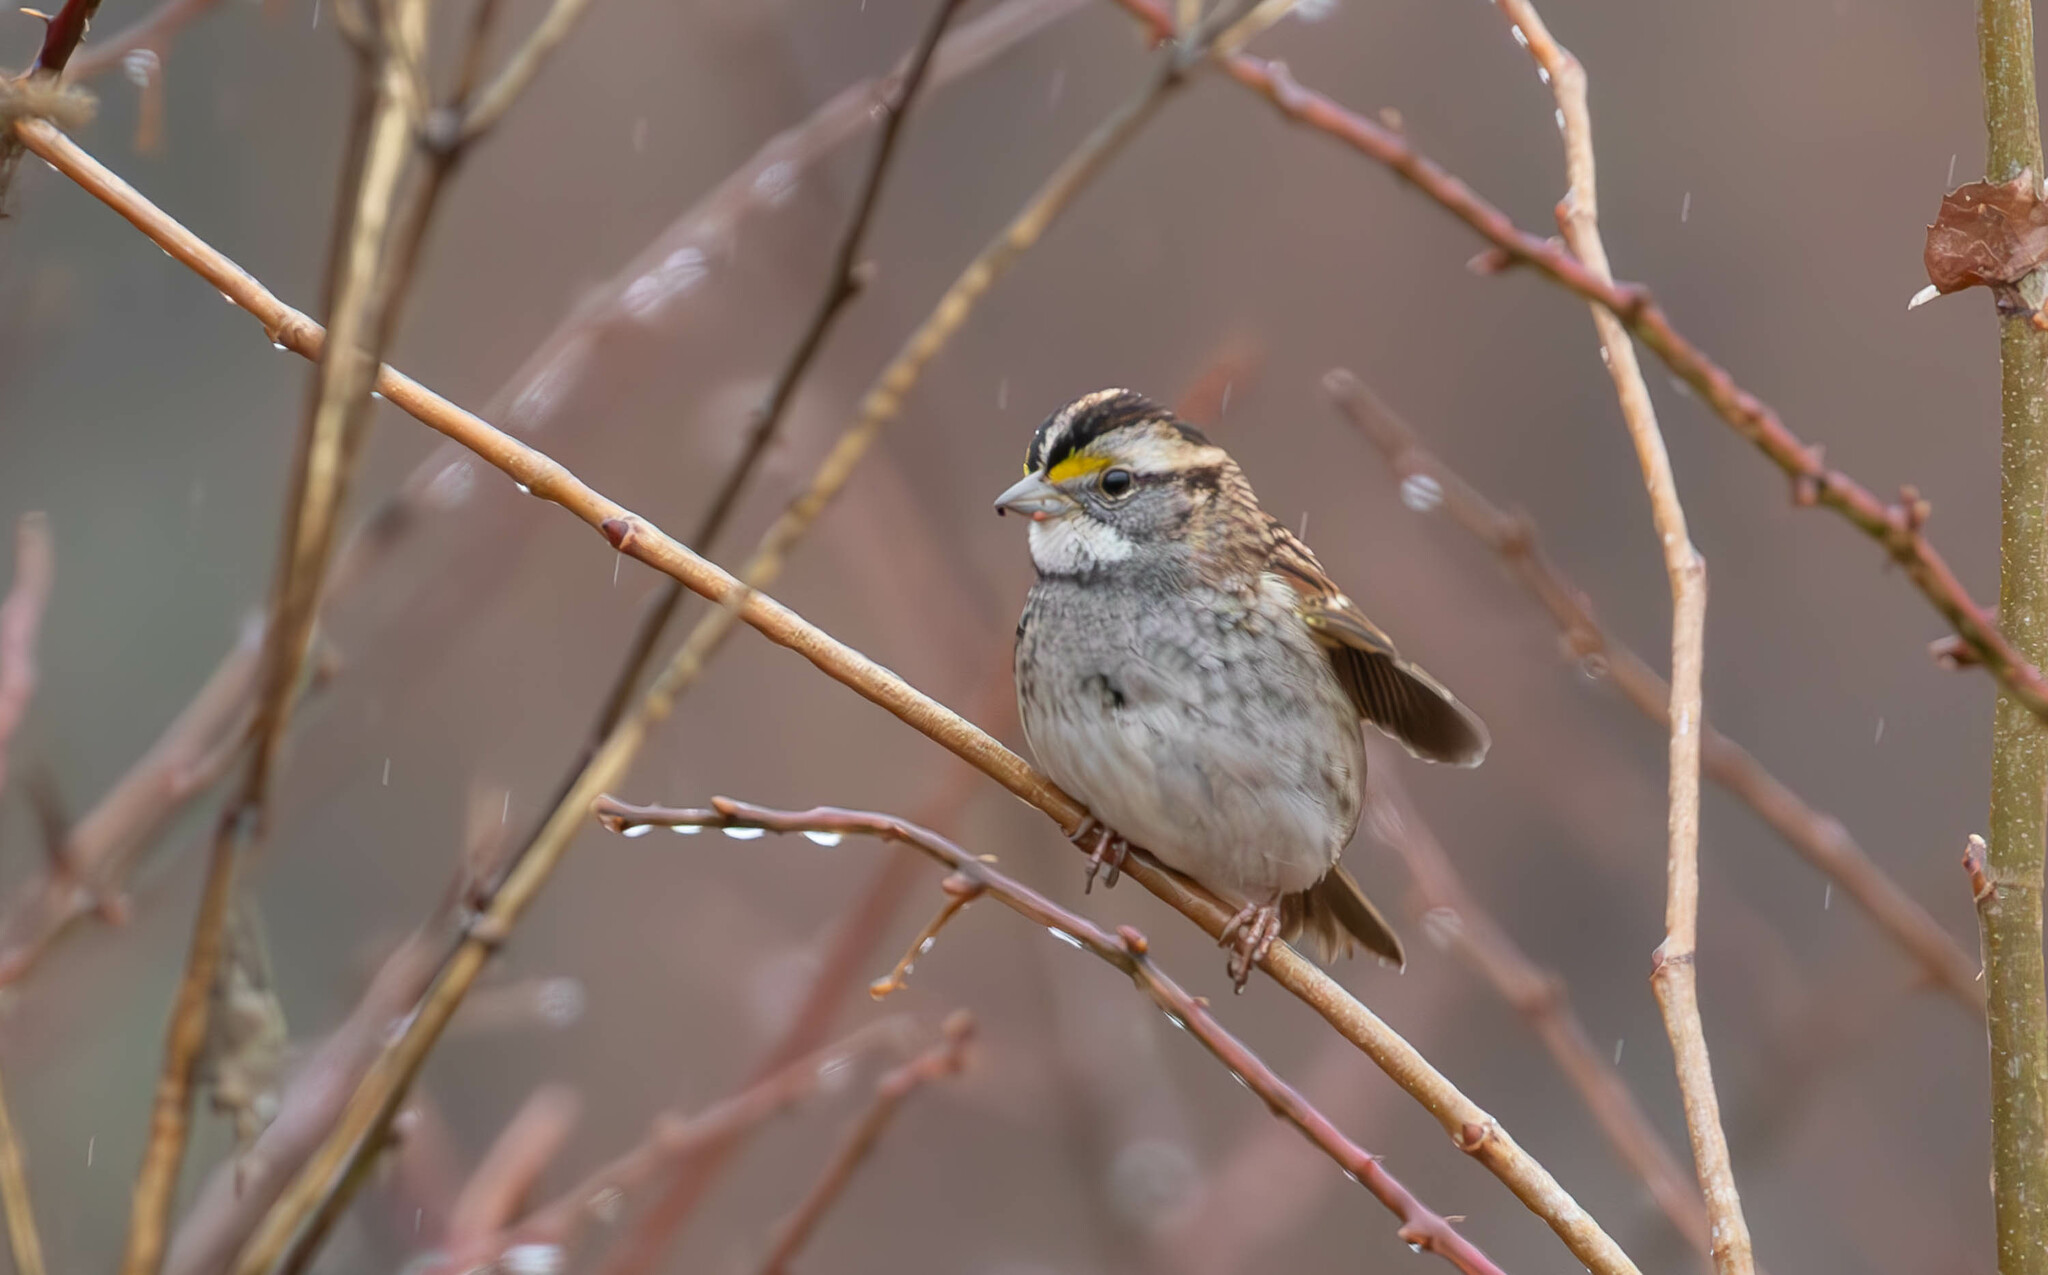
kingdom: Animalia
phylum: Chordata
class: Aves
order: Passeriformes
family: Passerellidae
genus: Zonotrichia
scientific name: Zonotrichia albicollis
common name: White-throated sparrow
